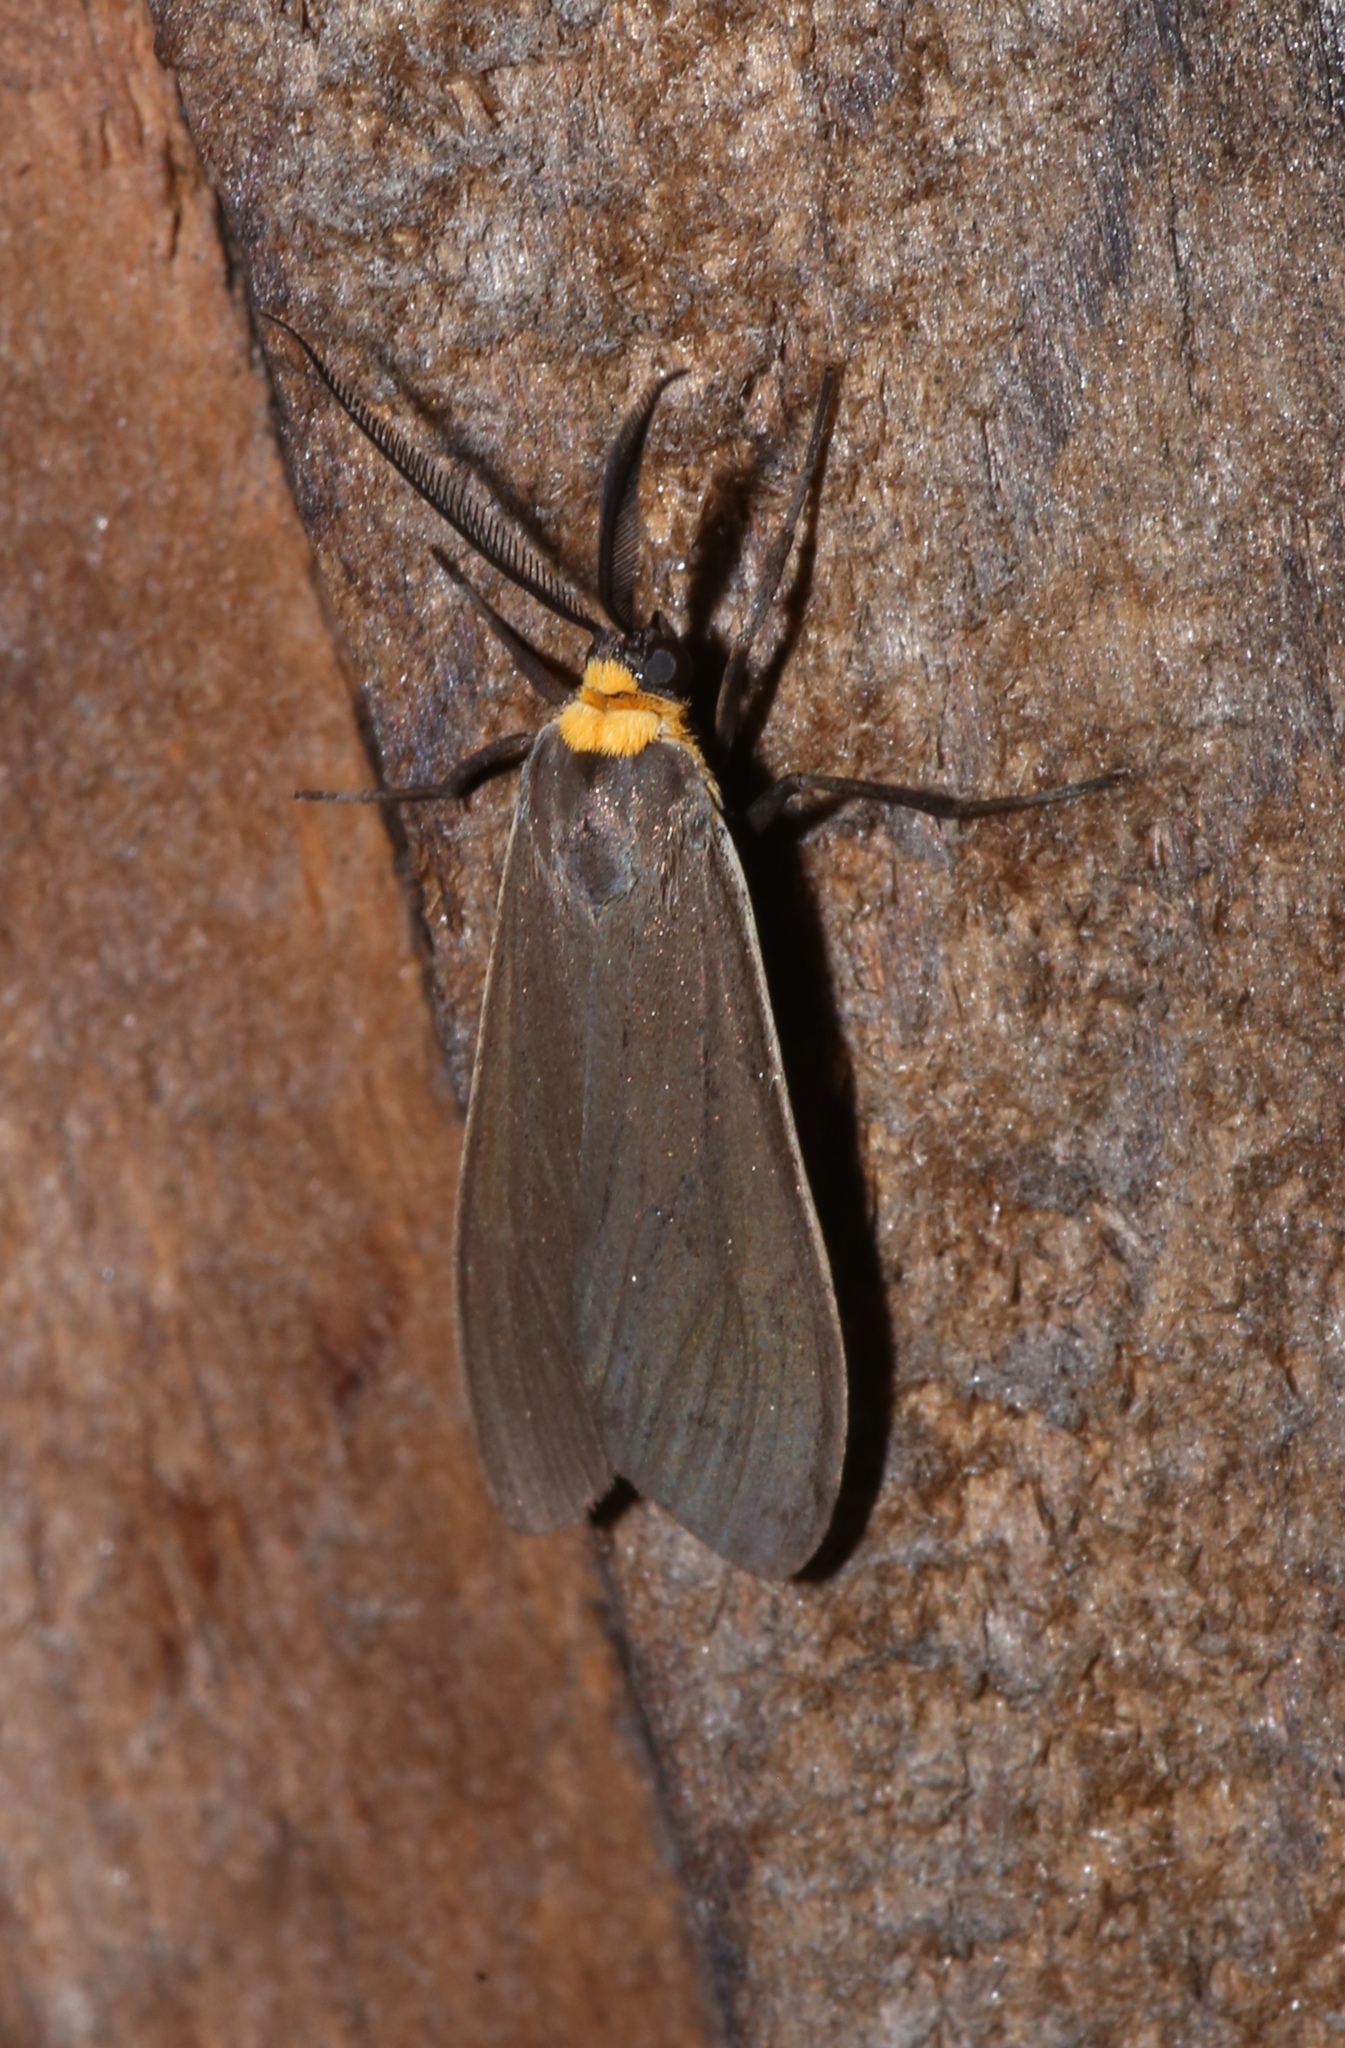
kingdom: Animalia
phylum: Arthropoda
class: Insecta
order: Lepidoptera
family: Erebidae
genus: Cisseps
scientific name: Cisseps fulvicollis
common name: Yellow-collared scape moth
